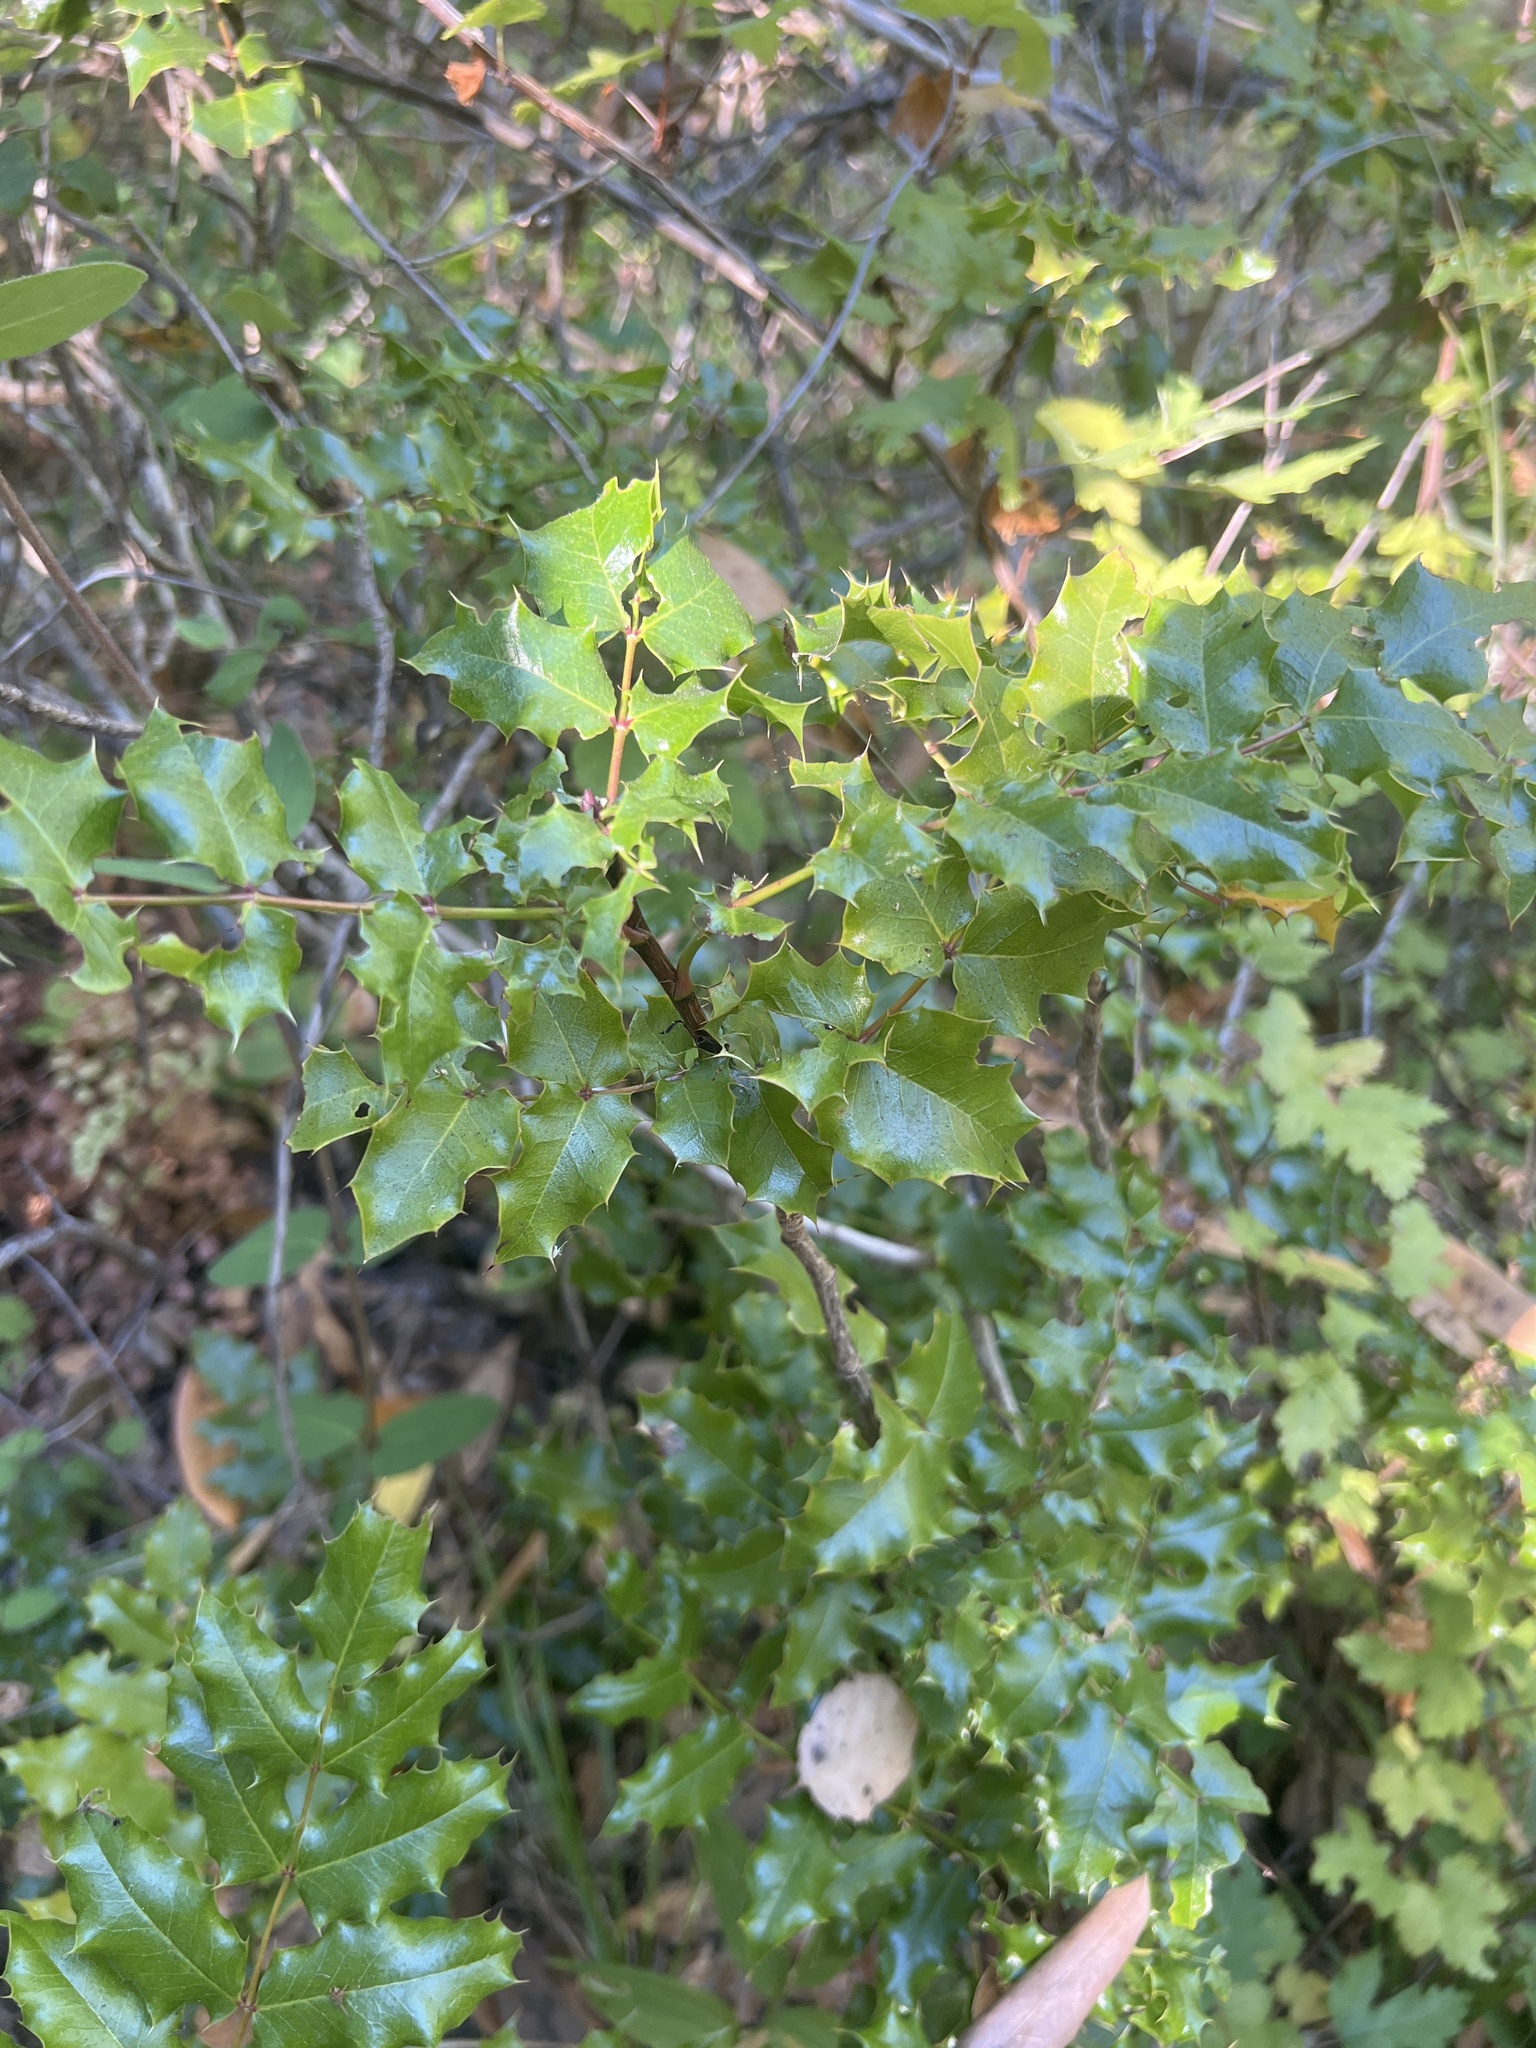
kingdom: Plantae
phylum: Tracheophyta
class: Magnoliopsida
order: Ranunculales
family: Berberidaceae
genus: Mahonia
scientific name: Mahonia
